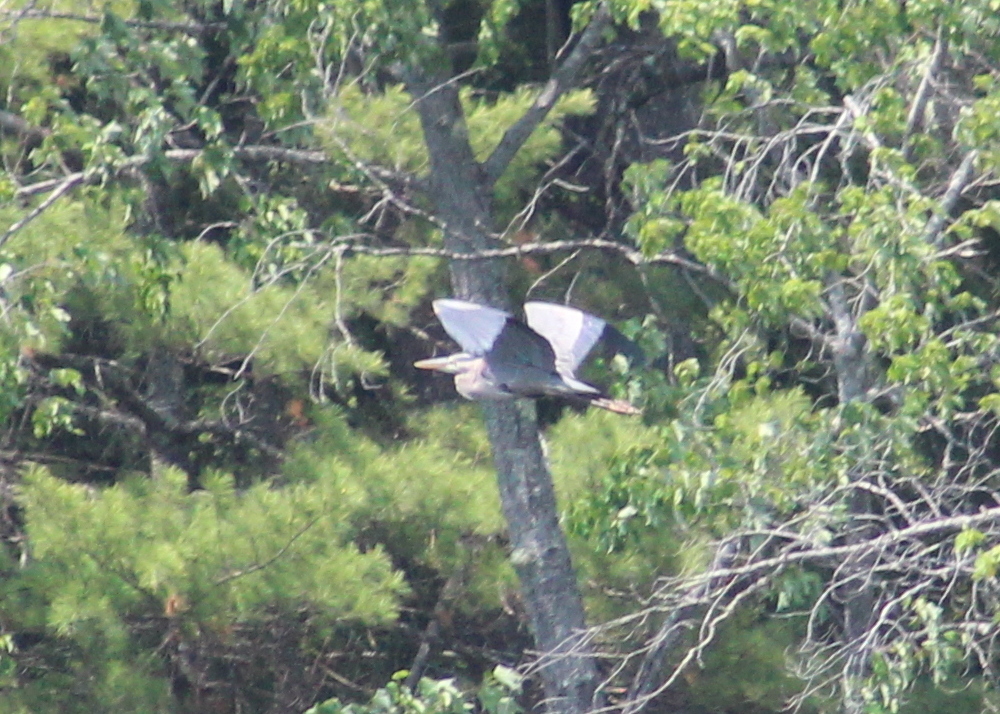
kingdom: Animalia
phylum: Chordata
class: Aves
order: Pelecaniformes
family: Ardeidae
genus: Ardea
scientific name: Ardea herodias
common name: Great blue heron
